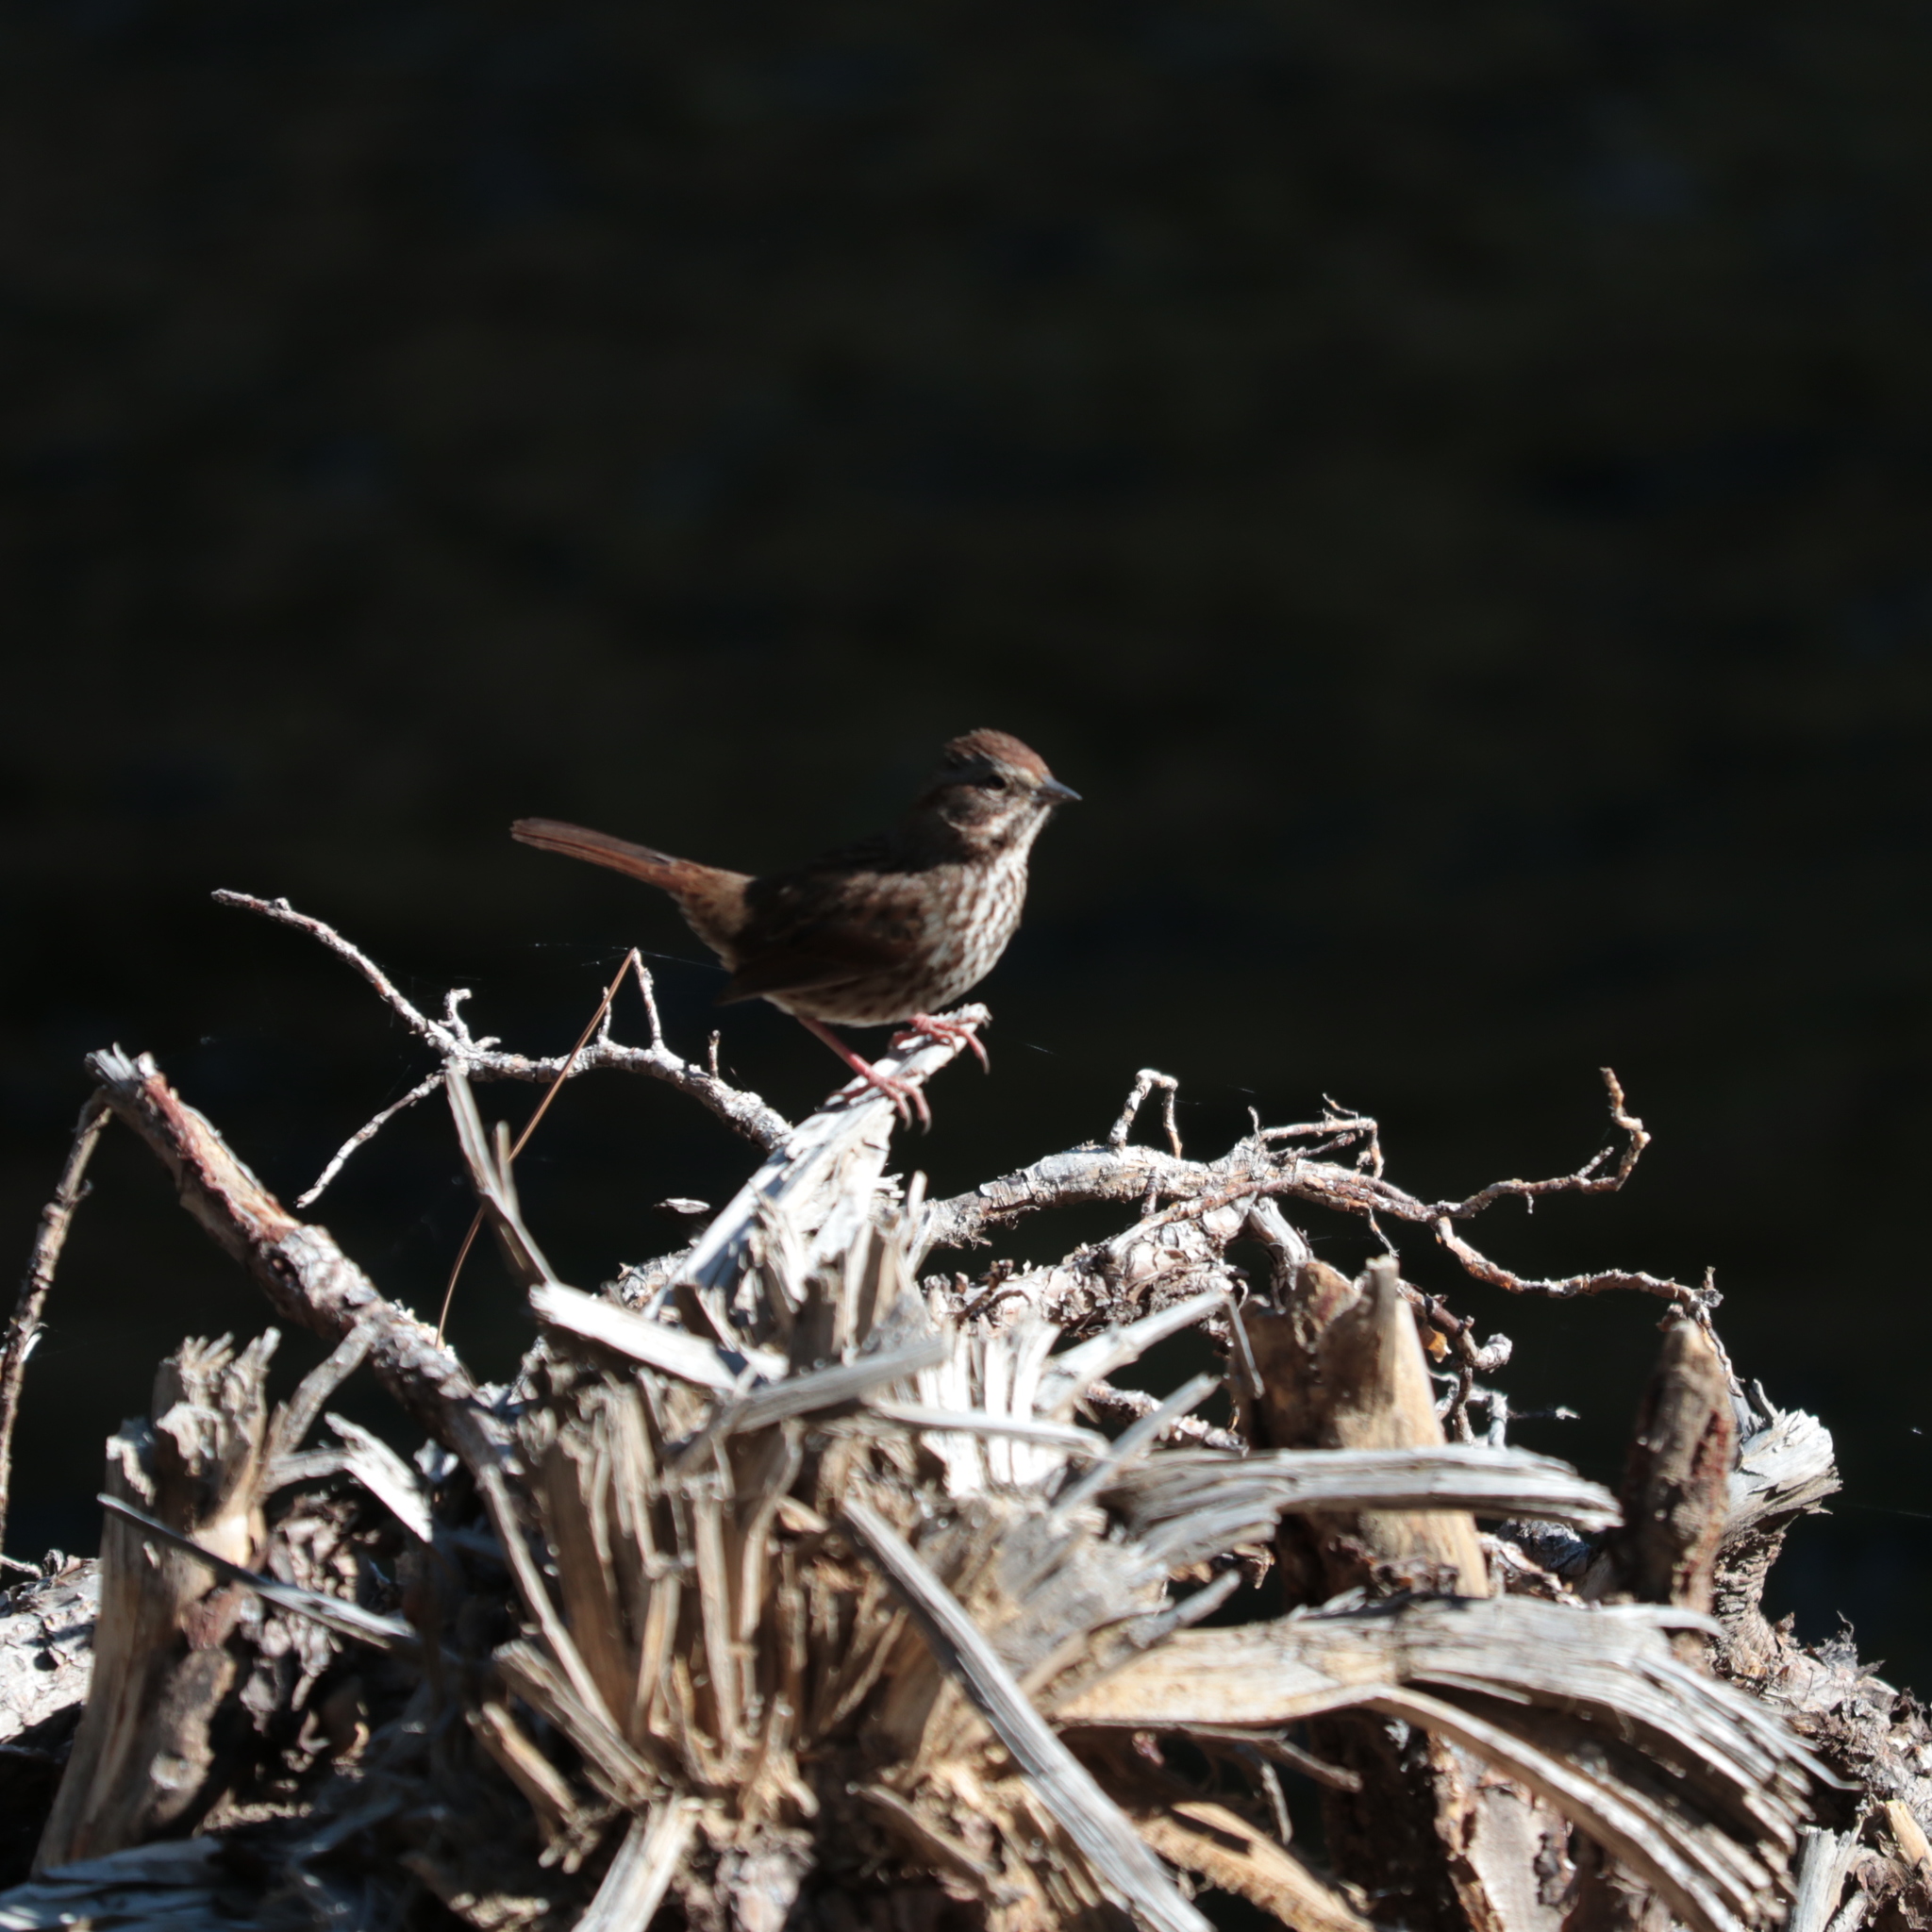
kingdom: Animalia
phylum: Chordata
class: Aves
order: Passeriformes
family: Passerellidae
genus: Melospiza
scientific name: Melospiza melodia
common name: Song sparrow
